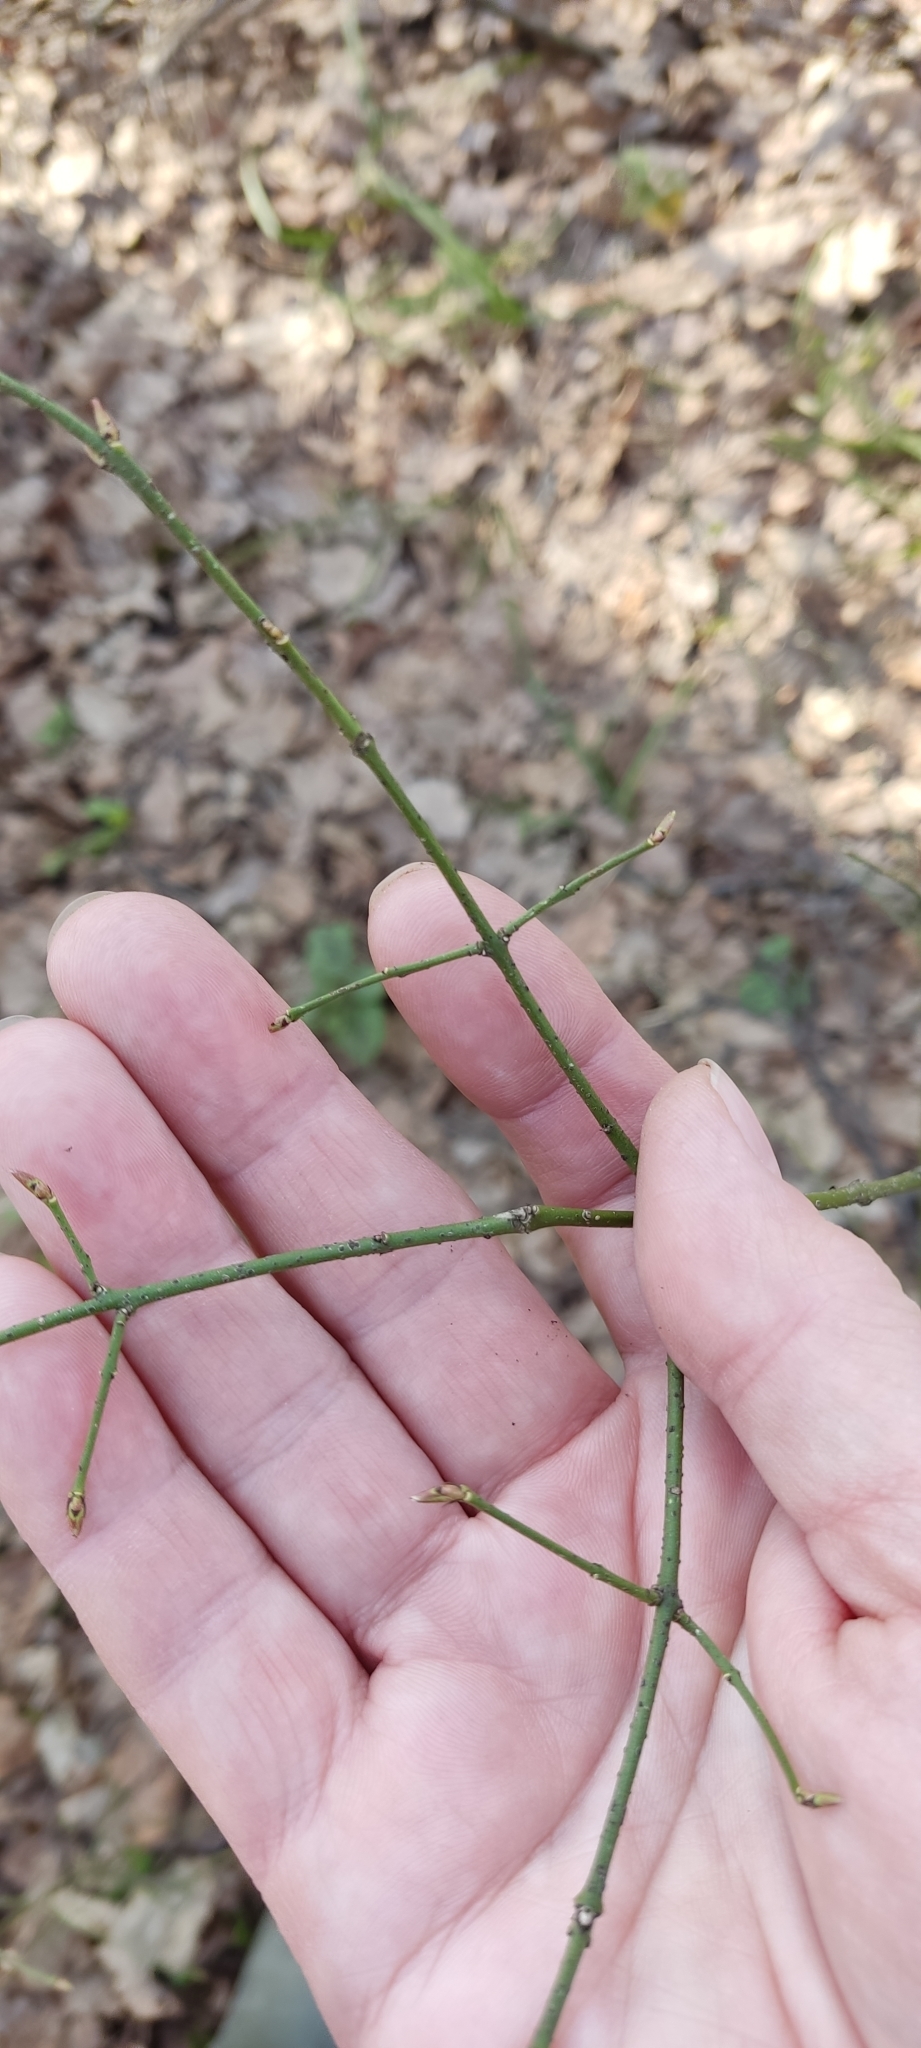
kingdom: Plantae
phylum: Tracheophyta
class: Magnoliopsida
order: Celastrales
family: Celastraceae
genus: Euonymus
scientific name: Euonymus verrucosus
